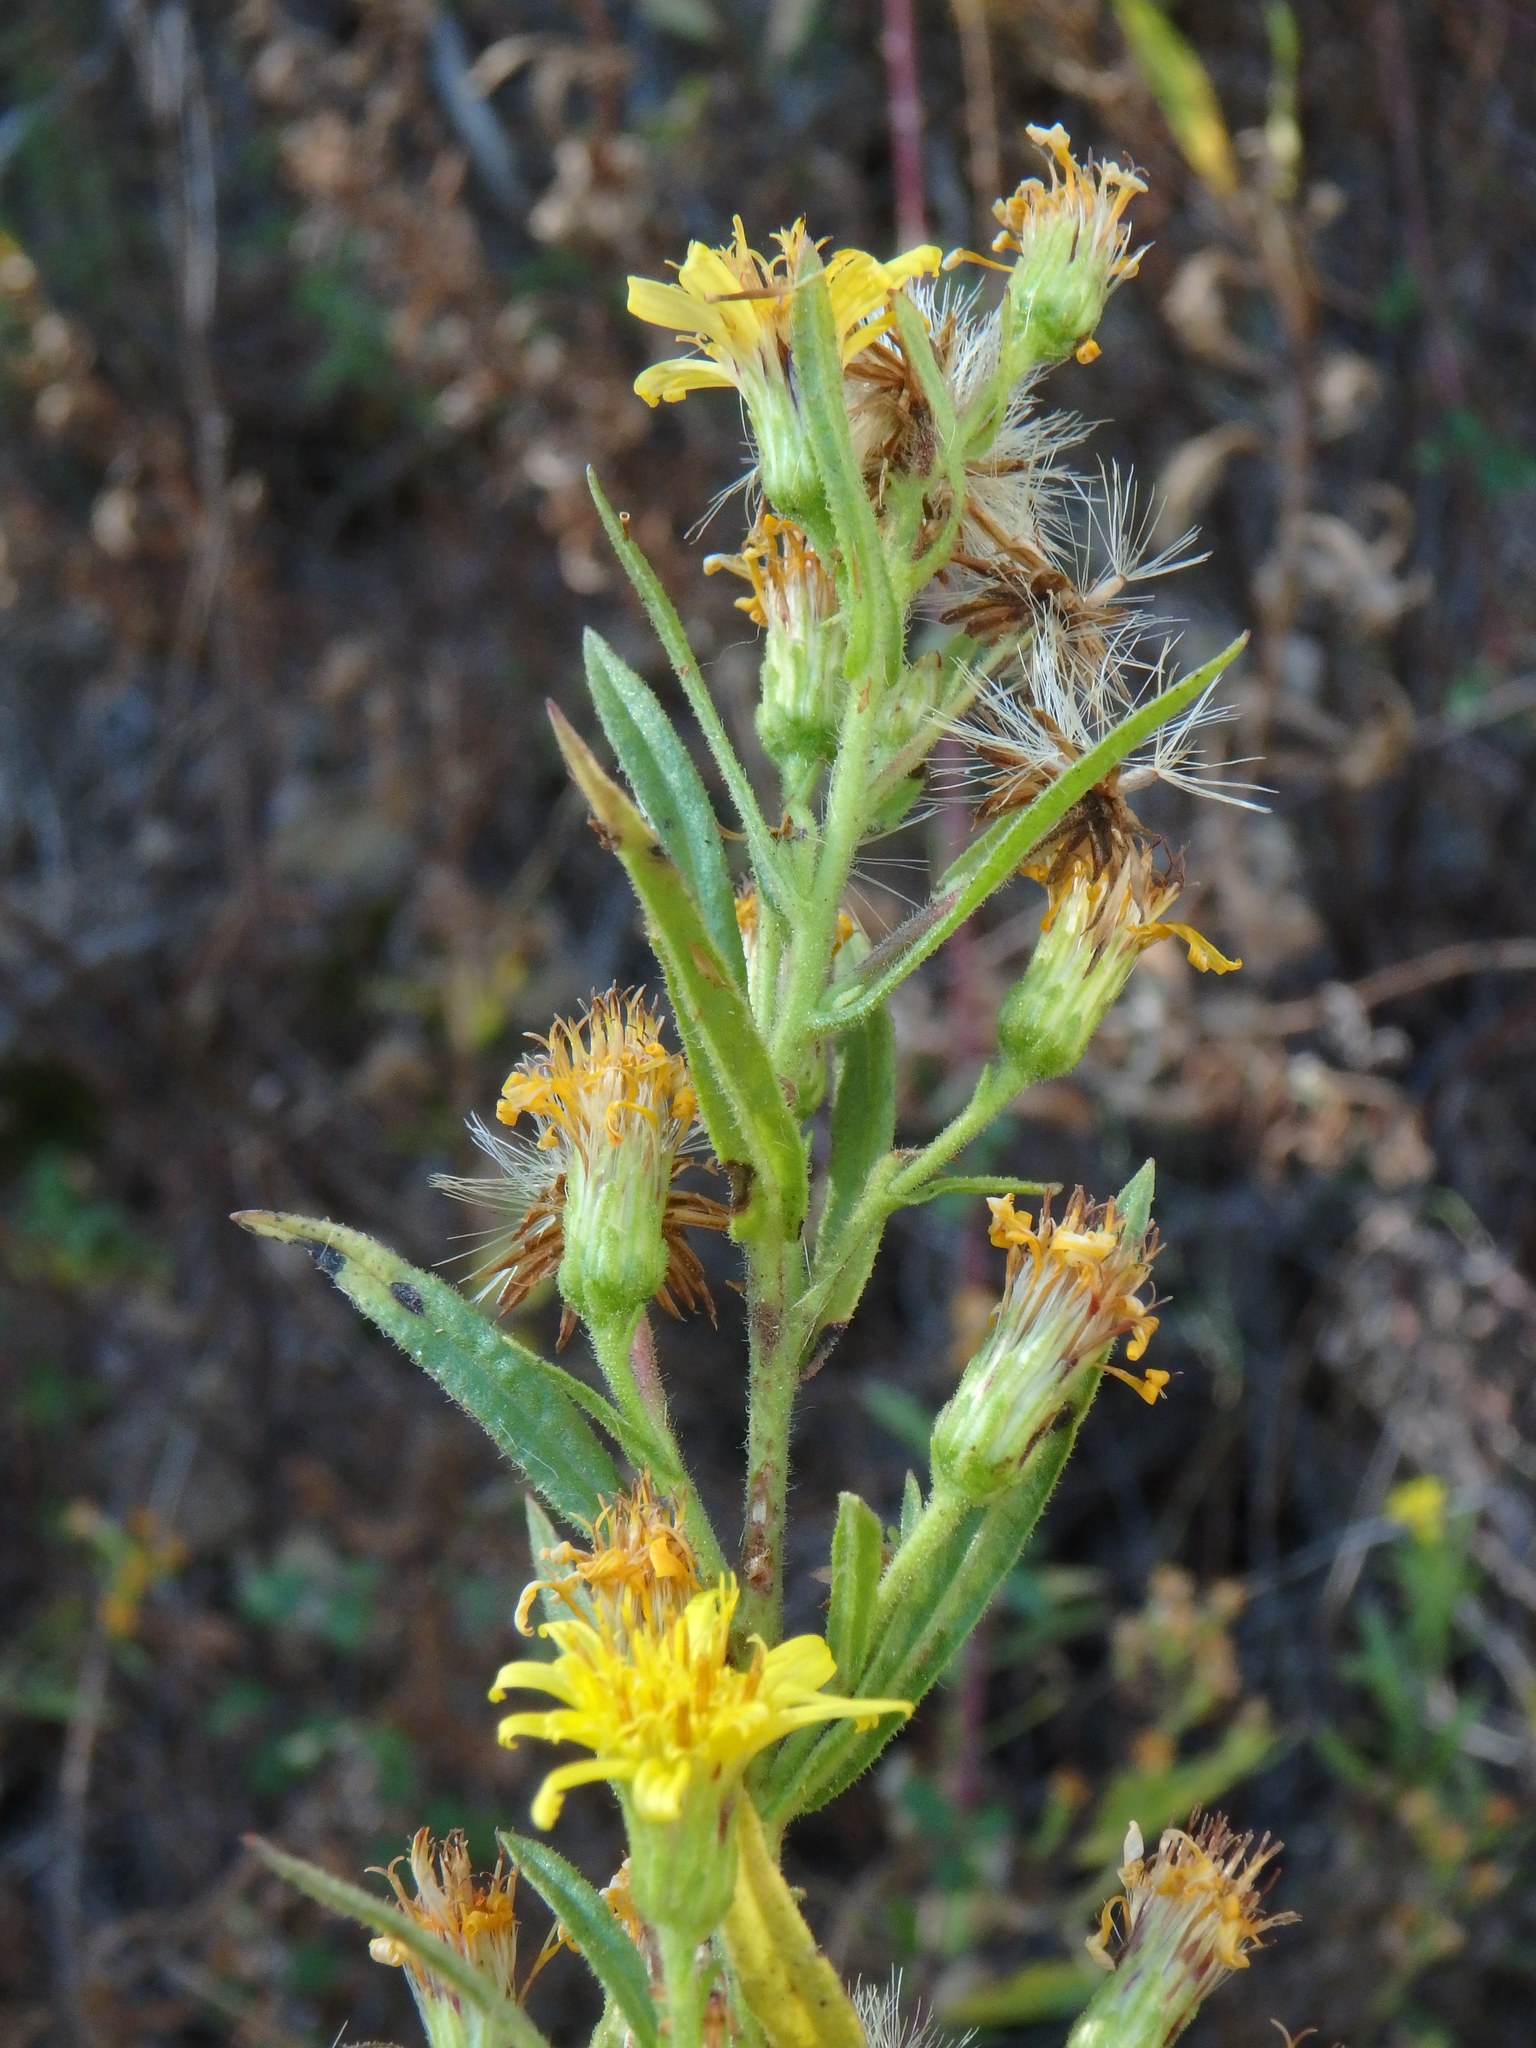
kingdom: Plantae
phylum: Tracheophyta
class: Magnoliopsida
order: Asterales
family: Asteraceae
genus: Dittrichia
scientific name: Dittrichia viscosa
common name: Woody fleabane
